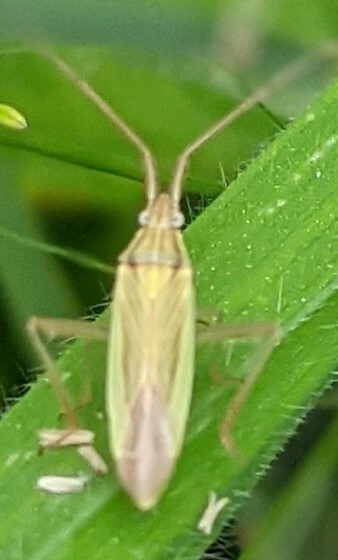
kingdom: Animalia
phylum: Arthropoda
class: Insecta
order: Hemiptera
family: Miridae
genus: Stenodema
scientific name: Stenodema calcarata
